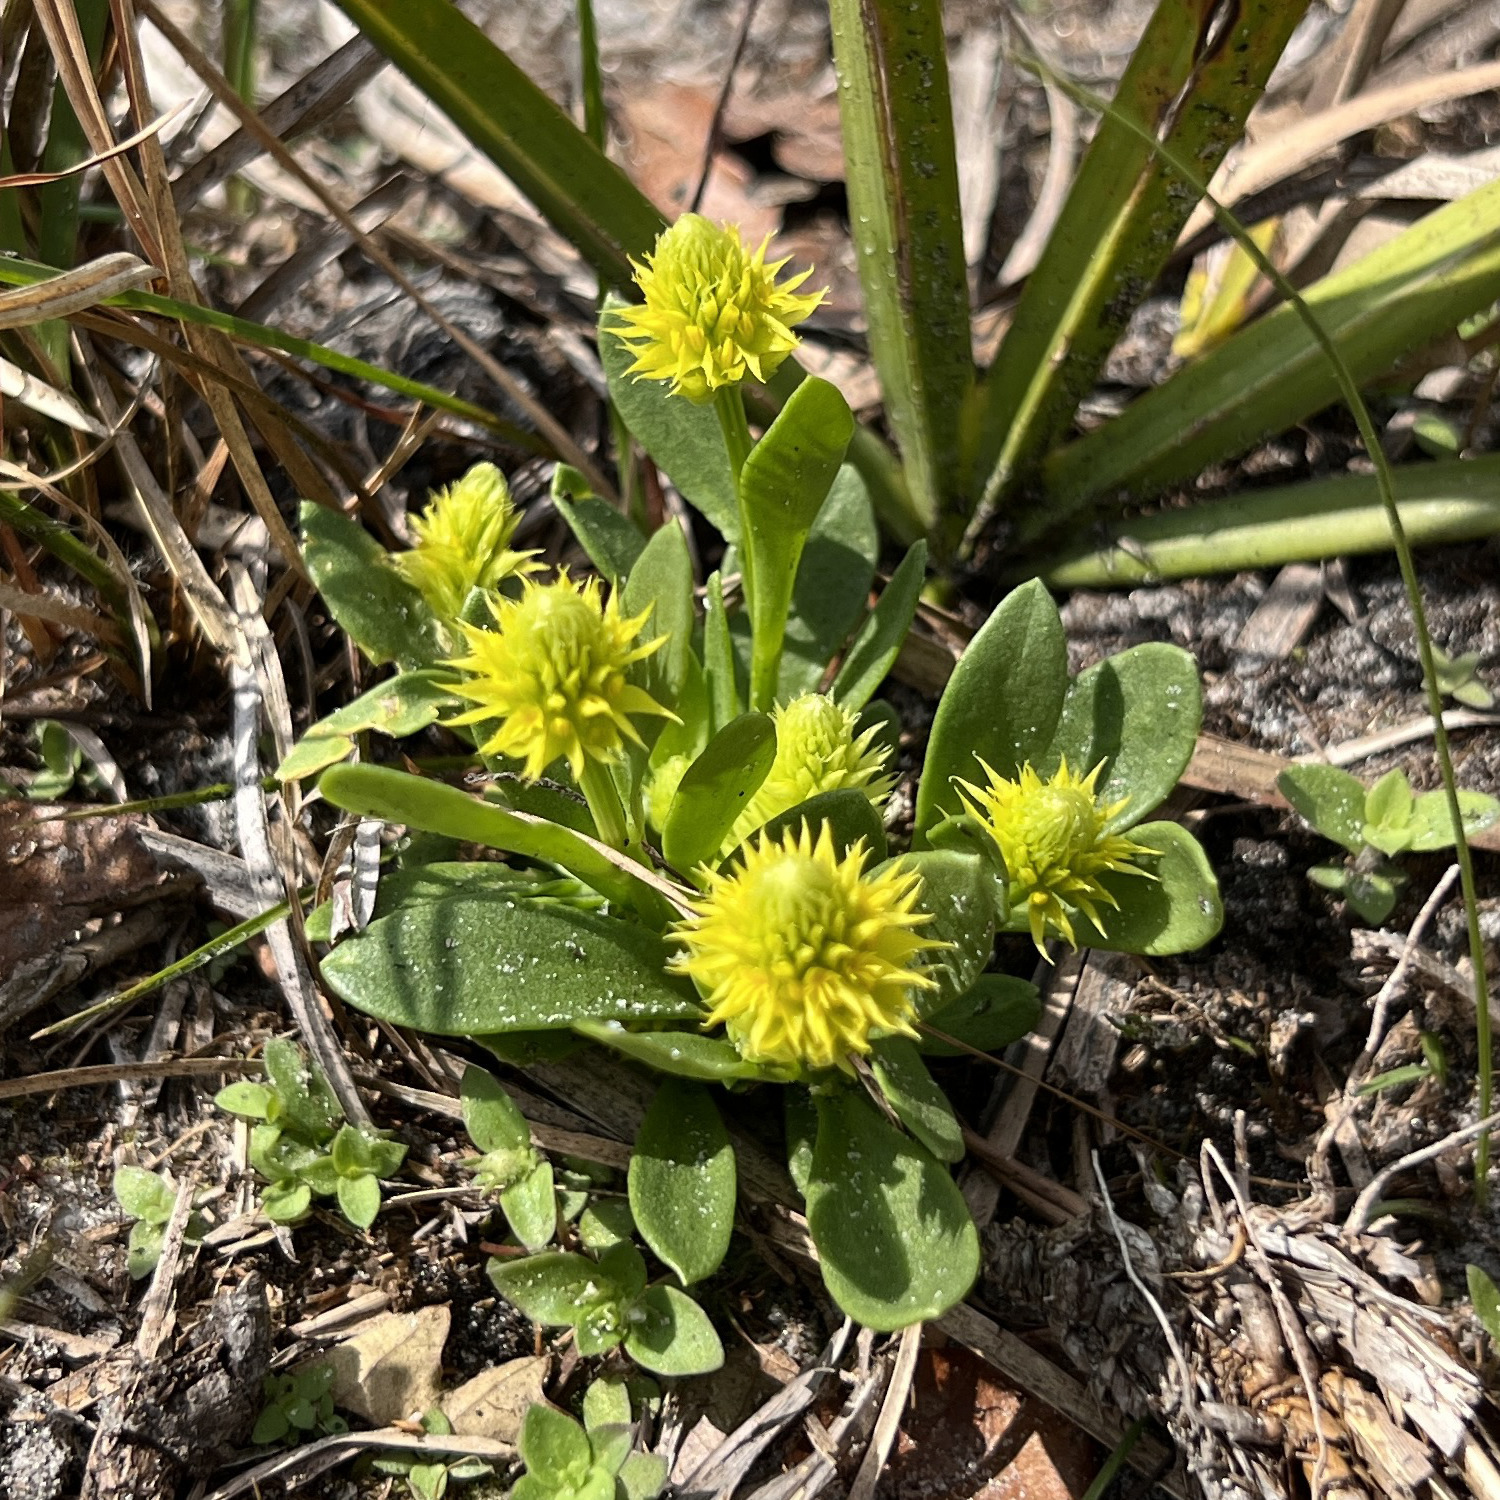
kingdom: Plantae
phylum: Tracheophyta
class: Magnoliopsida
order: Fabales
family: Polygalaceae
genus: Polygala
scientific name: Polygala nana
